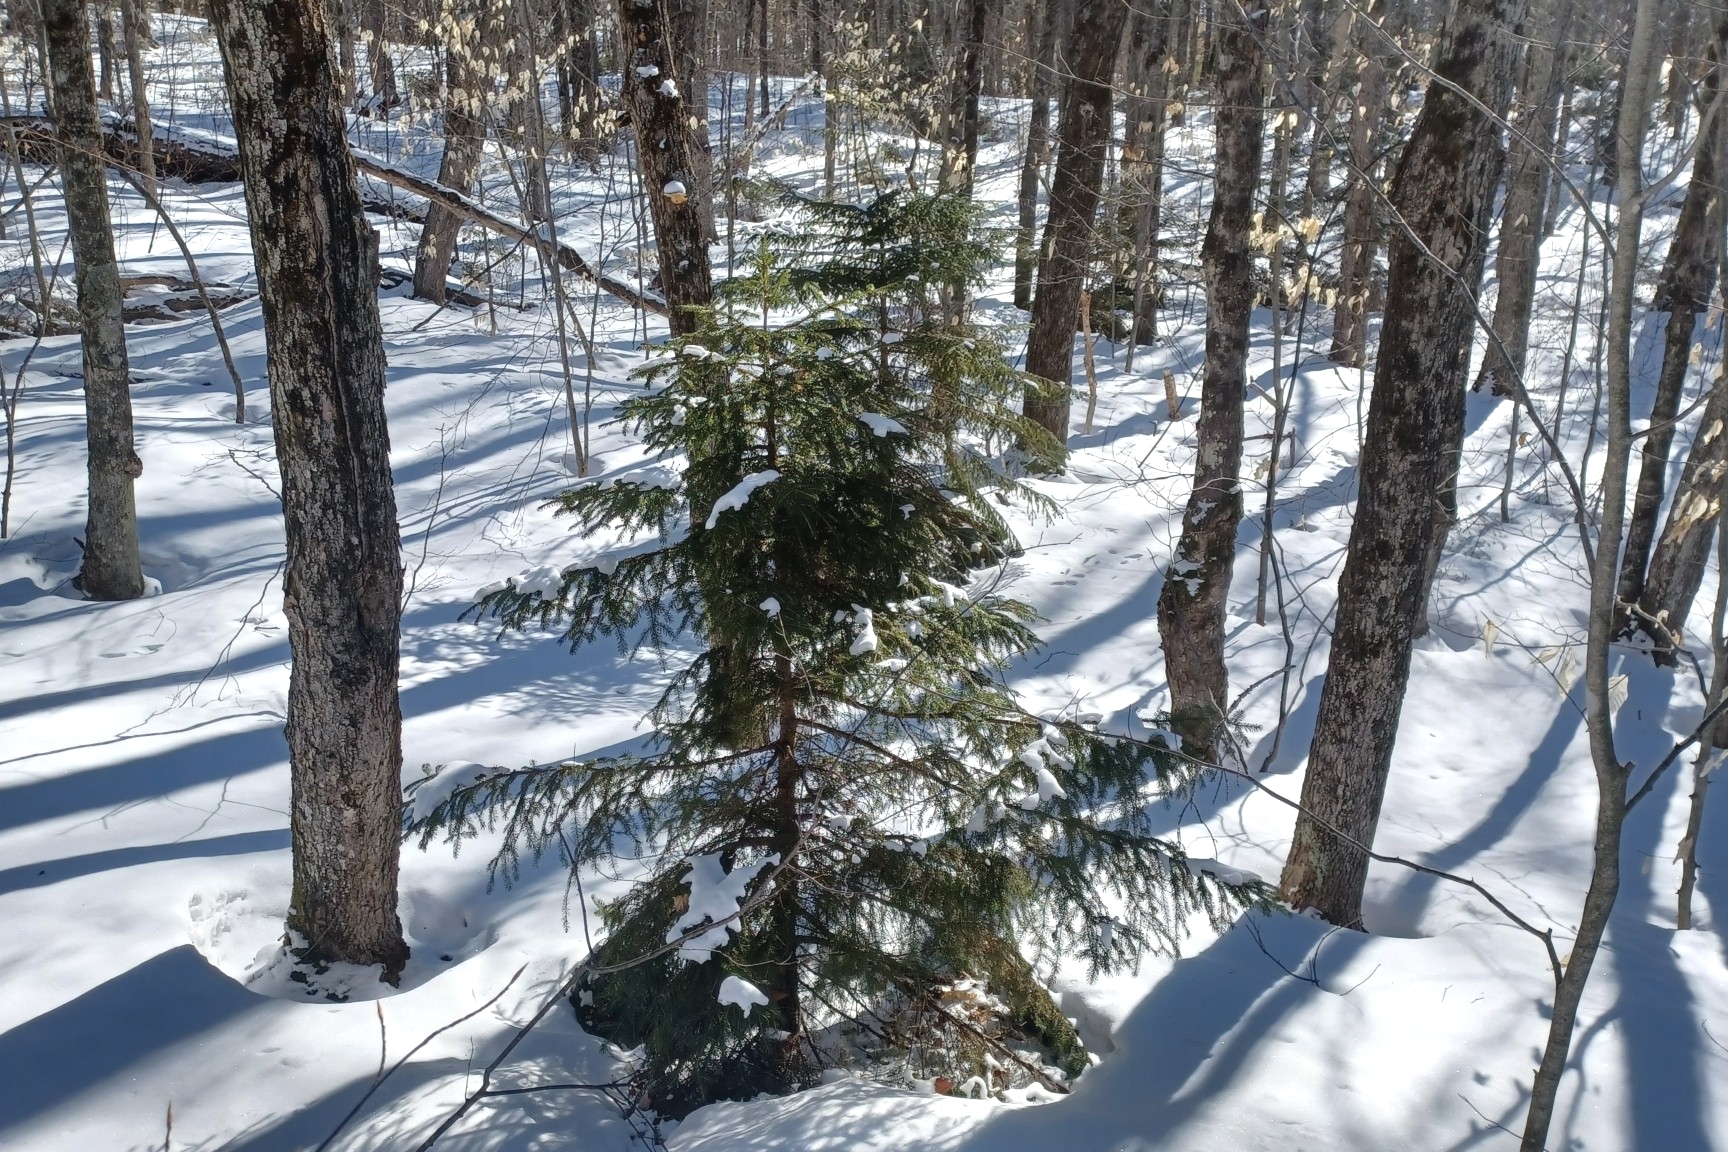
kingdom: Plantae
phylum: Tracheophyta
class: Pinopsida
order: Pinales
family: Pinaceae
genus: Picea
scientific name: Picea rubens
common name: Red spruce
